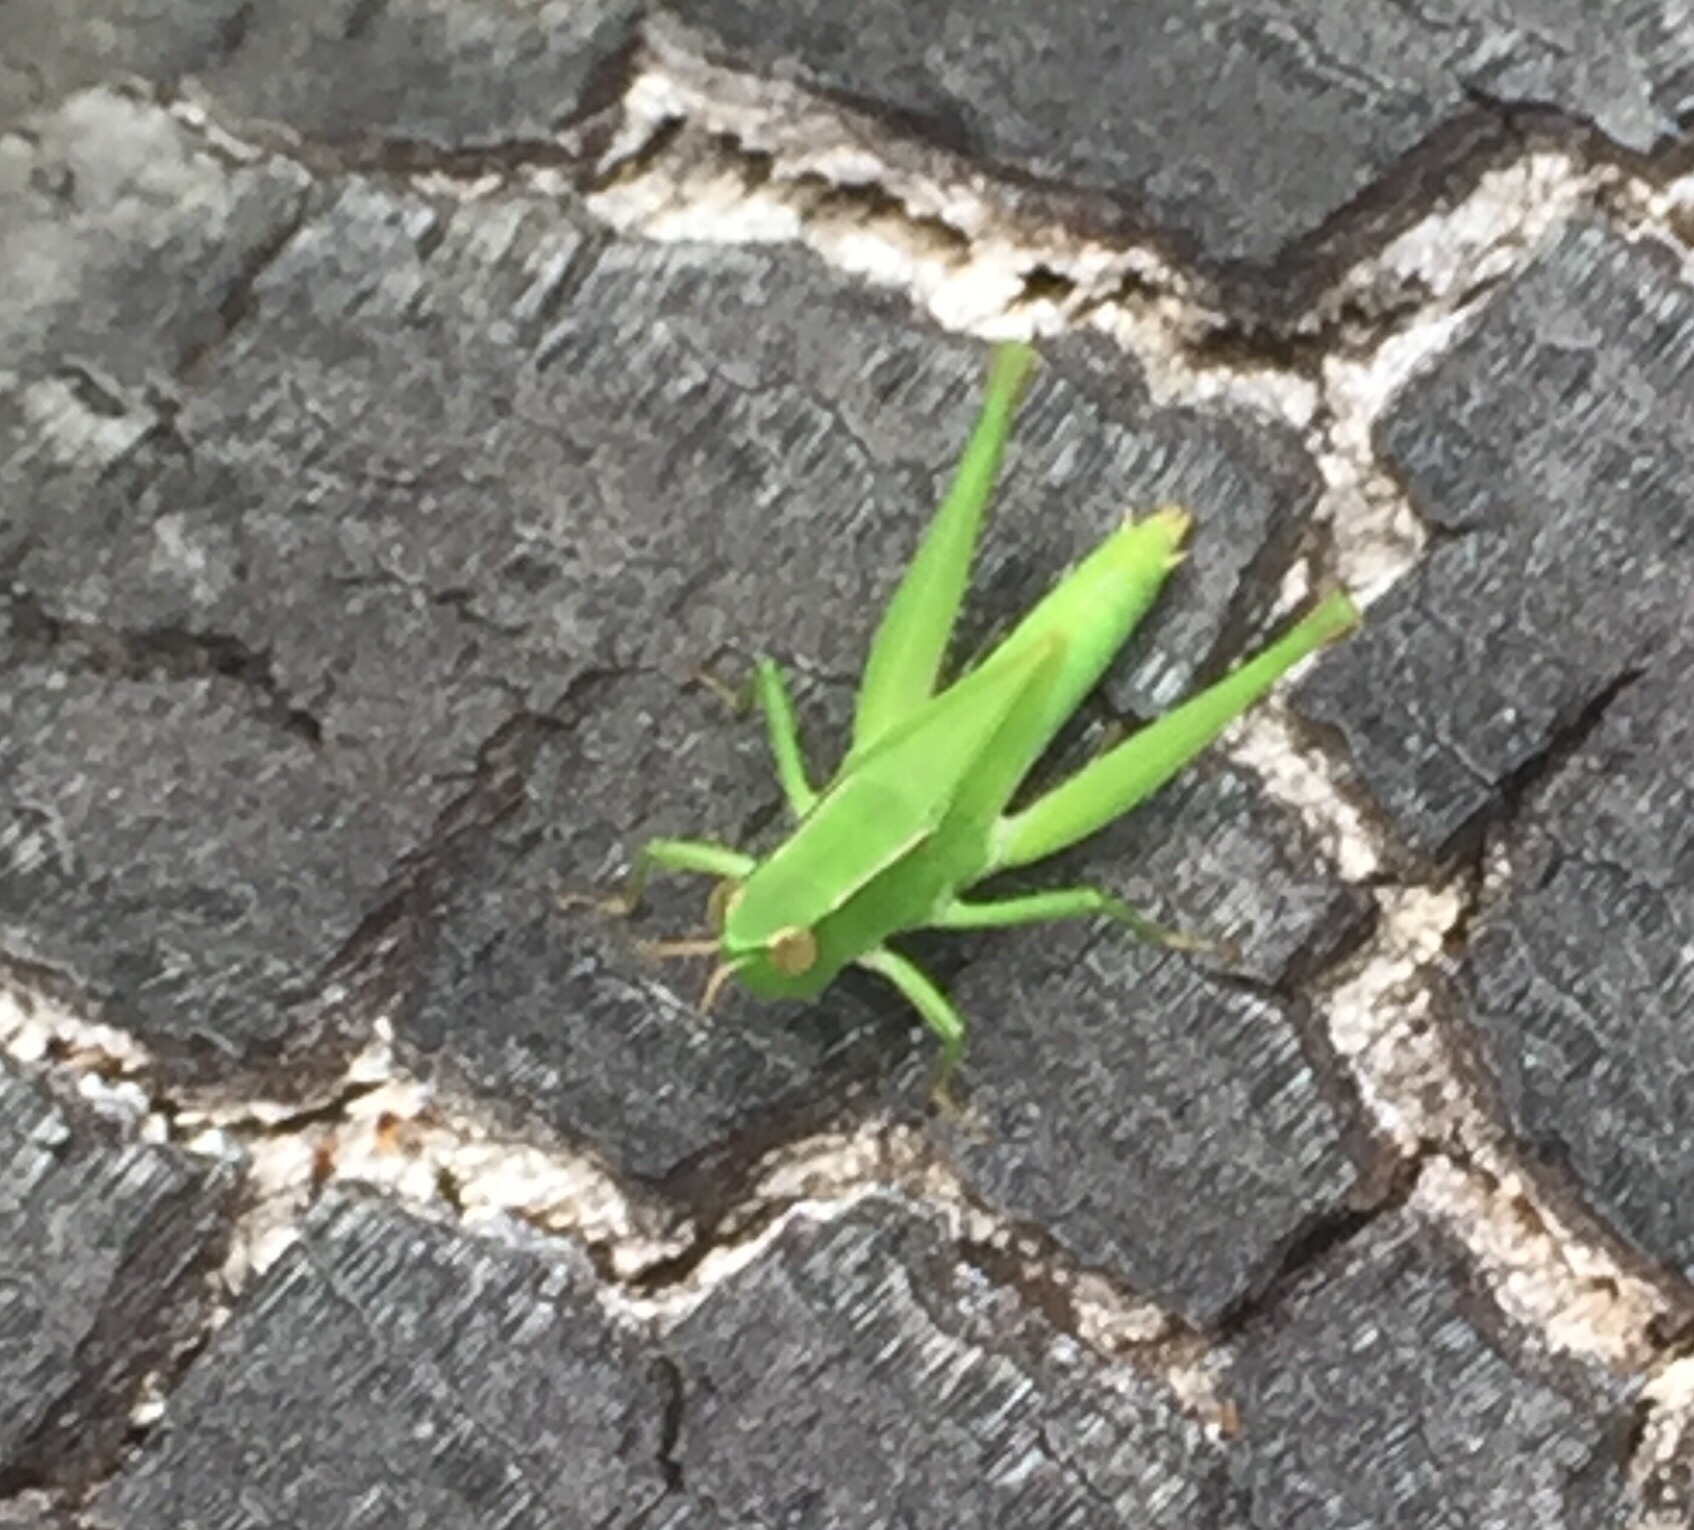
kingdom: Animalia
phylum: Arthropoda
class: Insecta
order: Orthoptera
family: Acrididae
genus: Dichromorpha
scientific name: Dichromorpha viridis
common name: Short-winged green grasshopper
